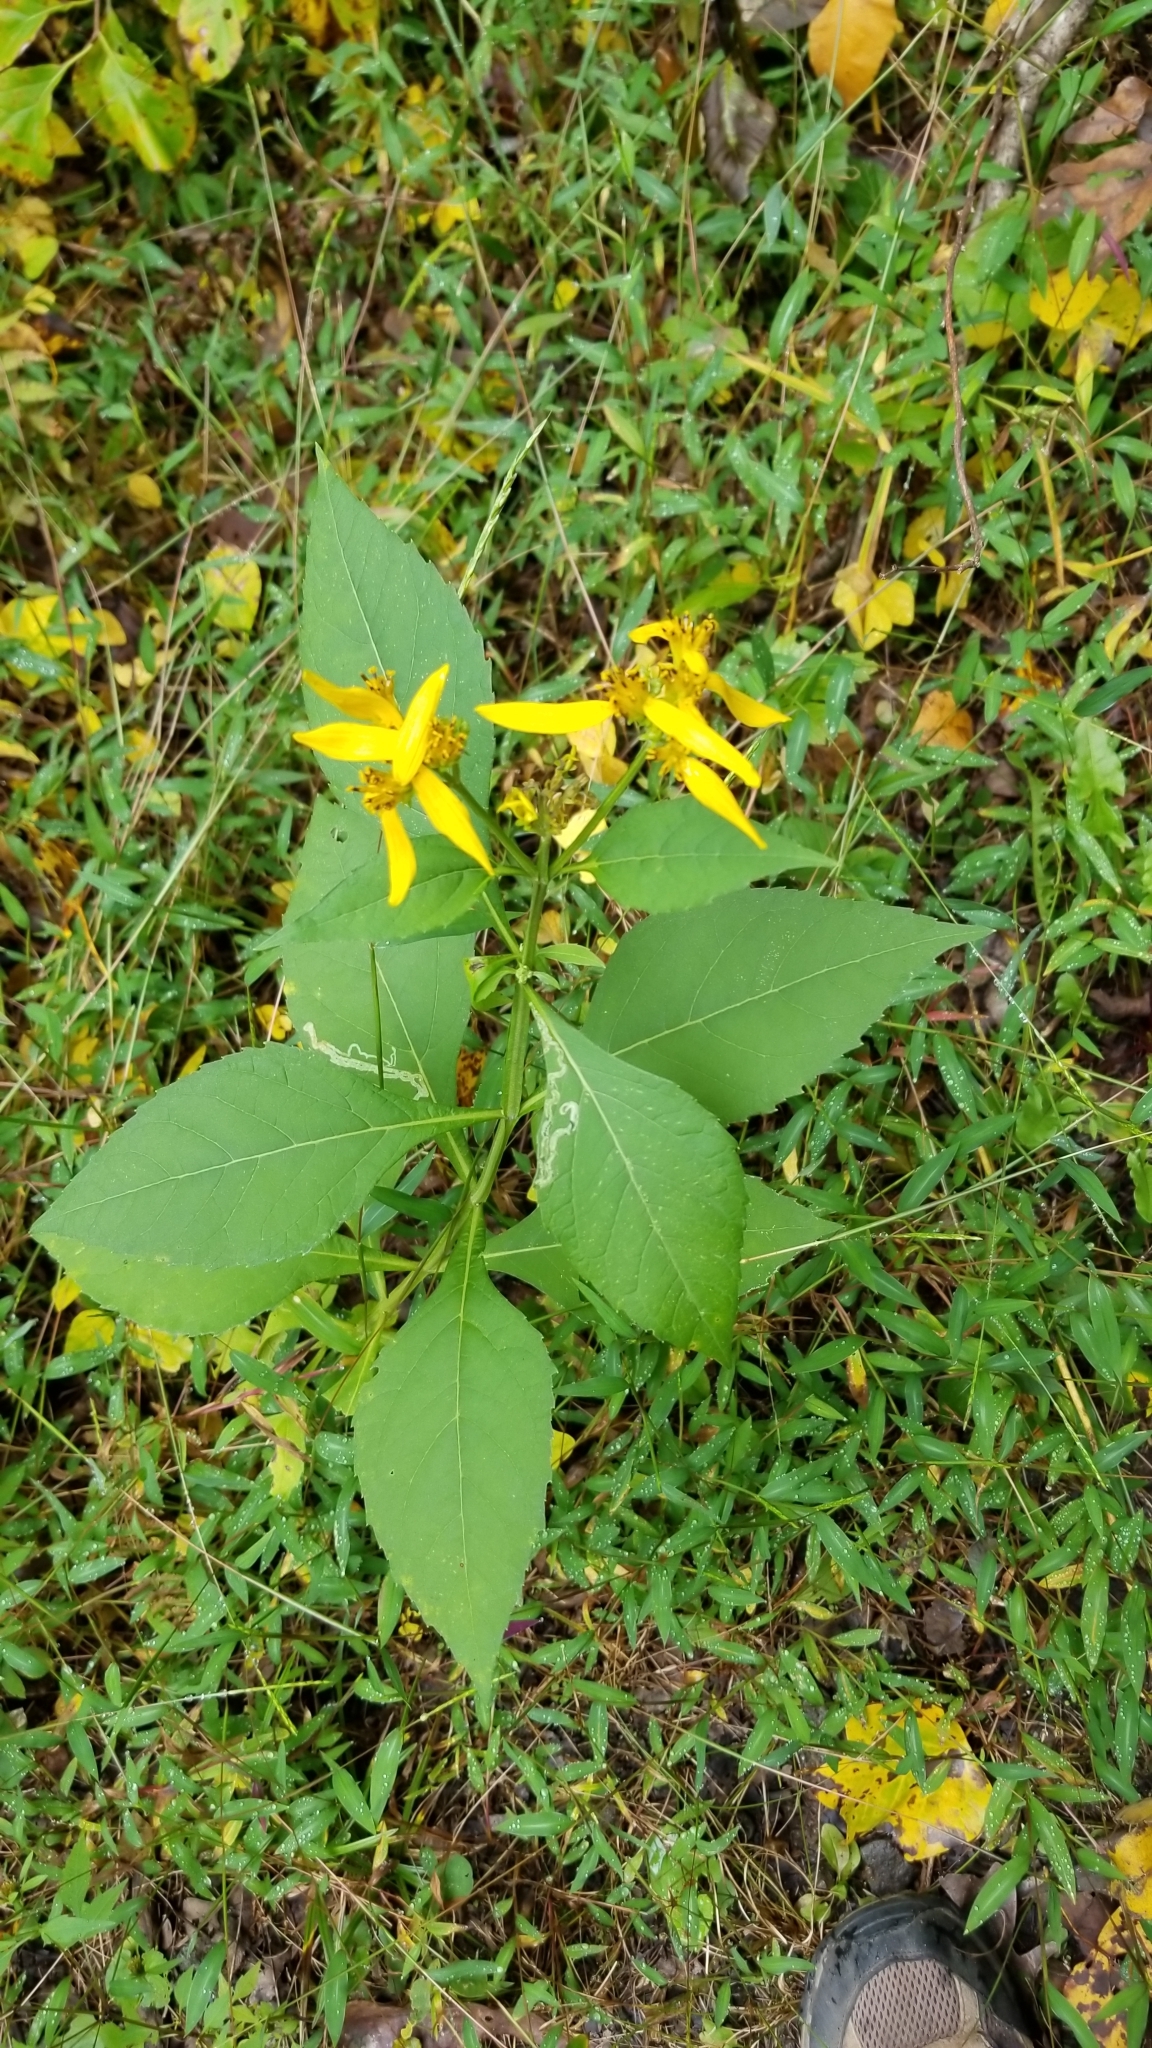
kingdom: Plantae
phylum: Tracheophyta
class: Magnoliopsida
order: Asterales
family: Asteraceae
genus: Verbesina
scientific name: Verbesina occidentalis
